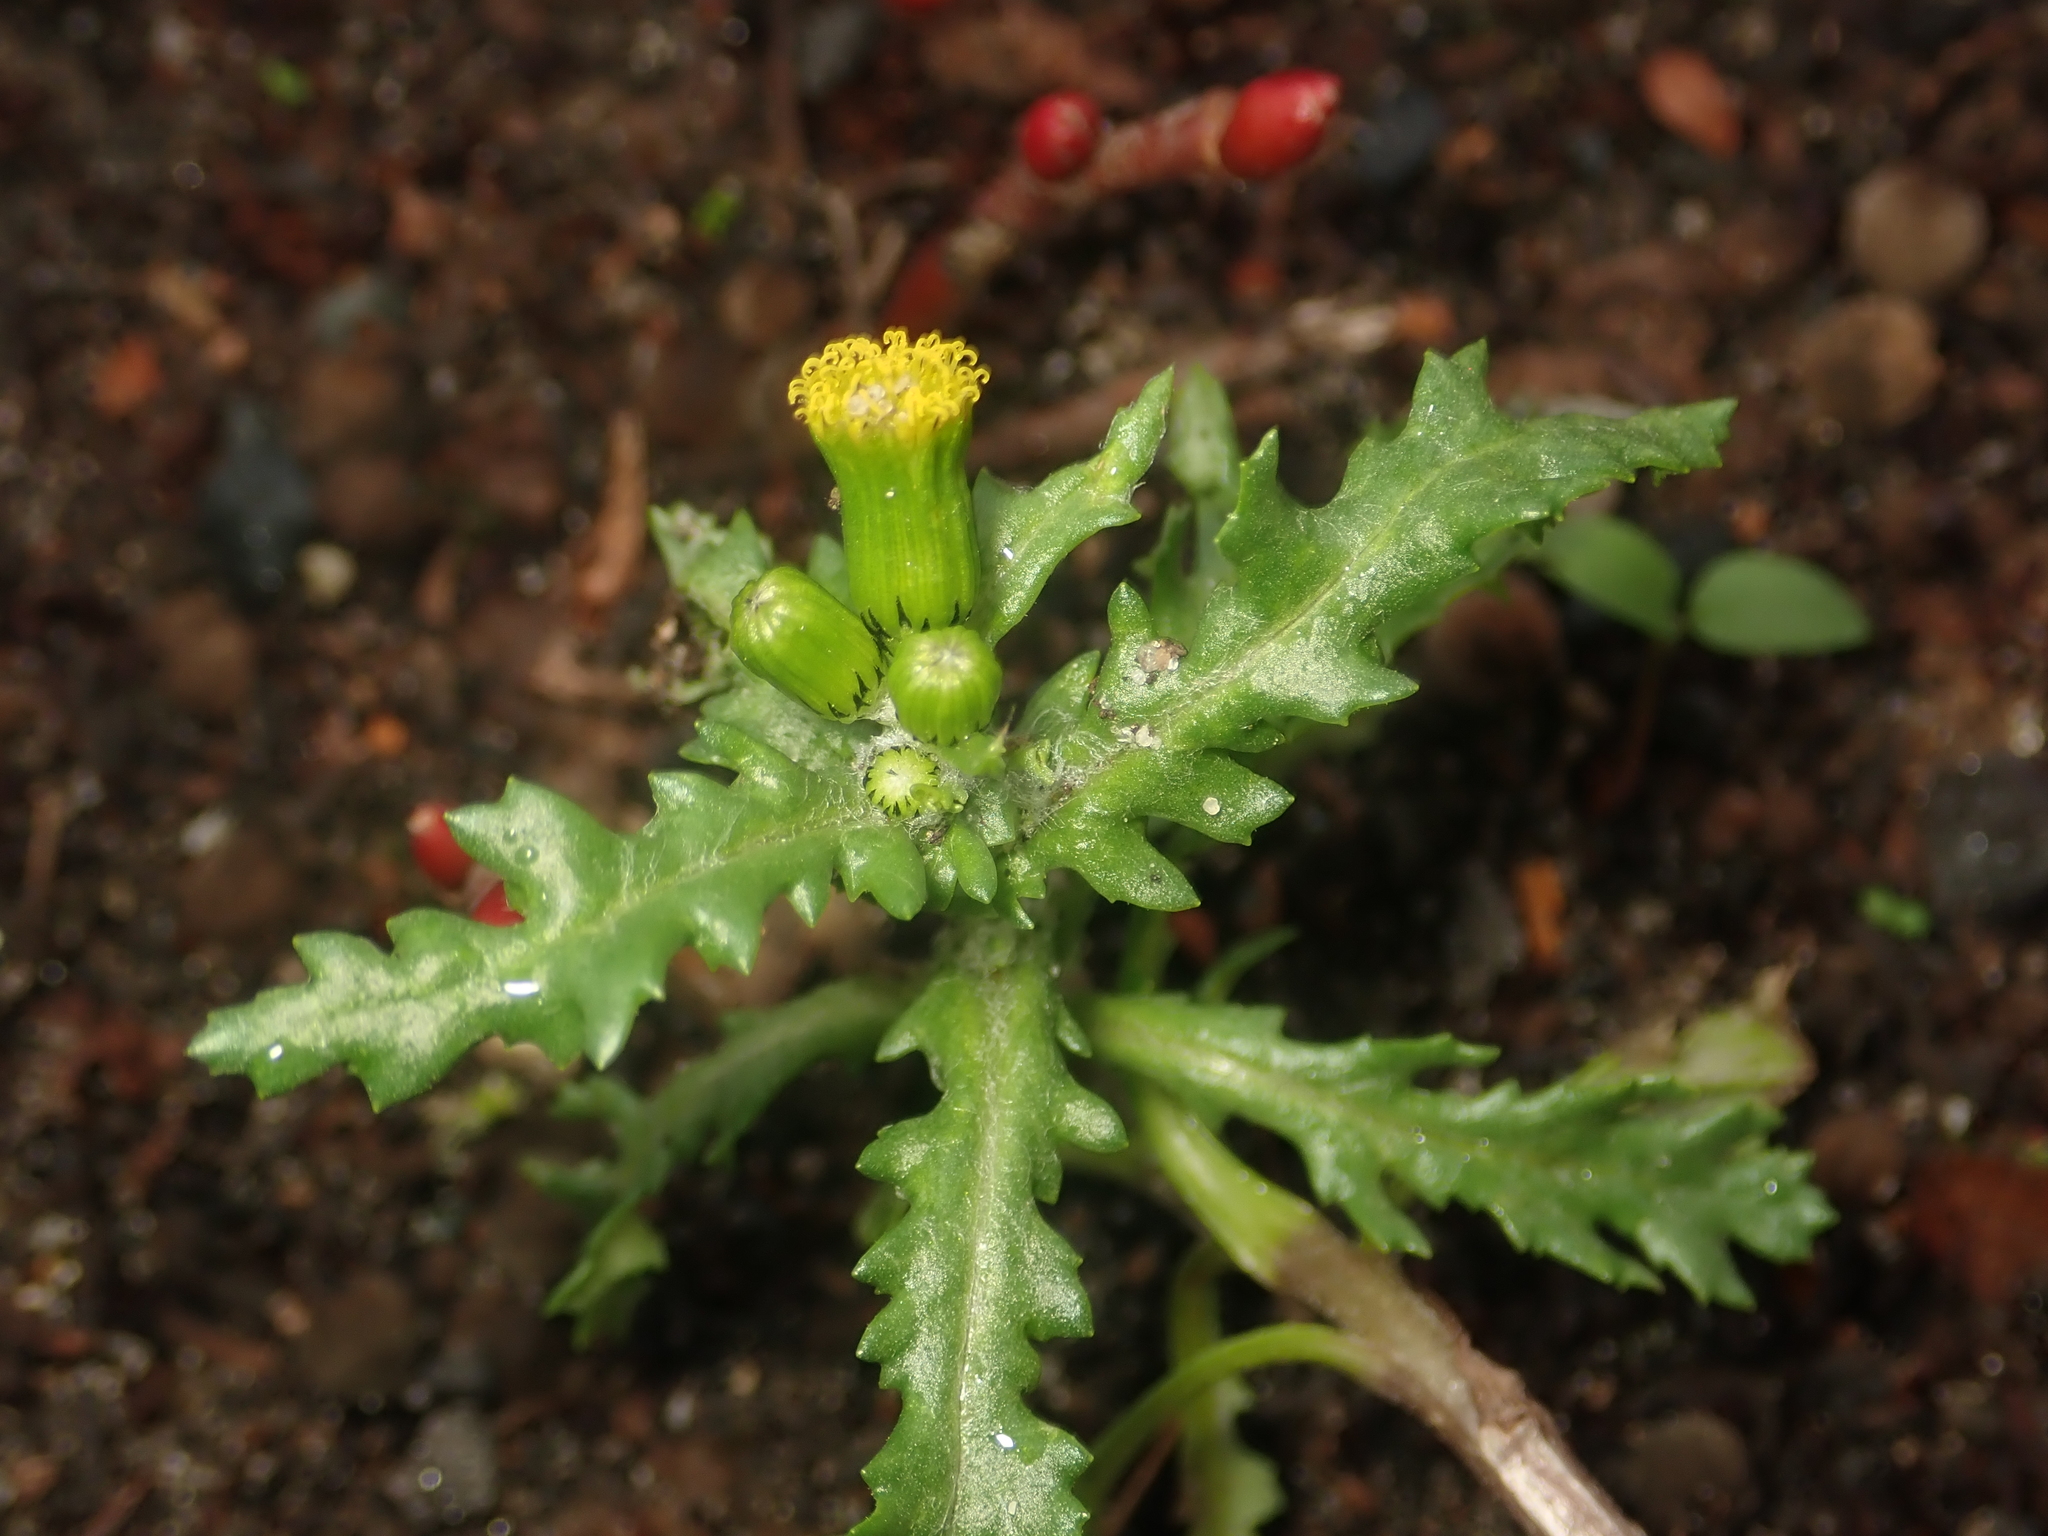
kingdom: Plantae
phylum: Tracheophyta
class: Magnoliopsida
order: Asterales
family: Asteraceae
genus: Senecio
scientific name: Senecio vulgaris
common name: Old-man-in-the-spring
